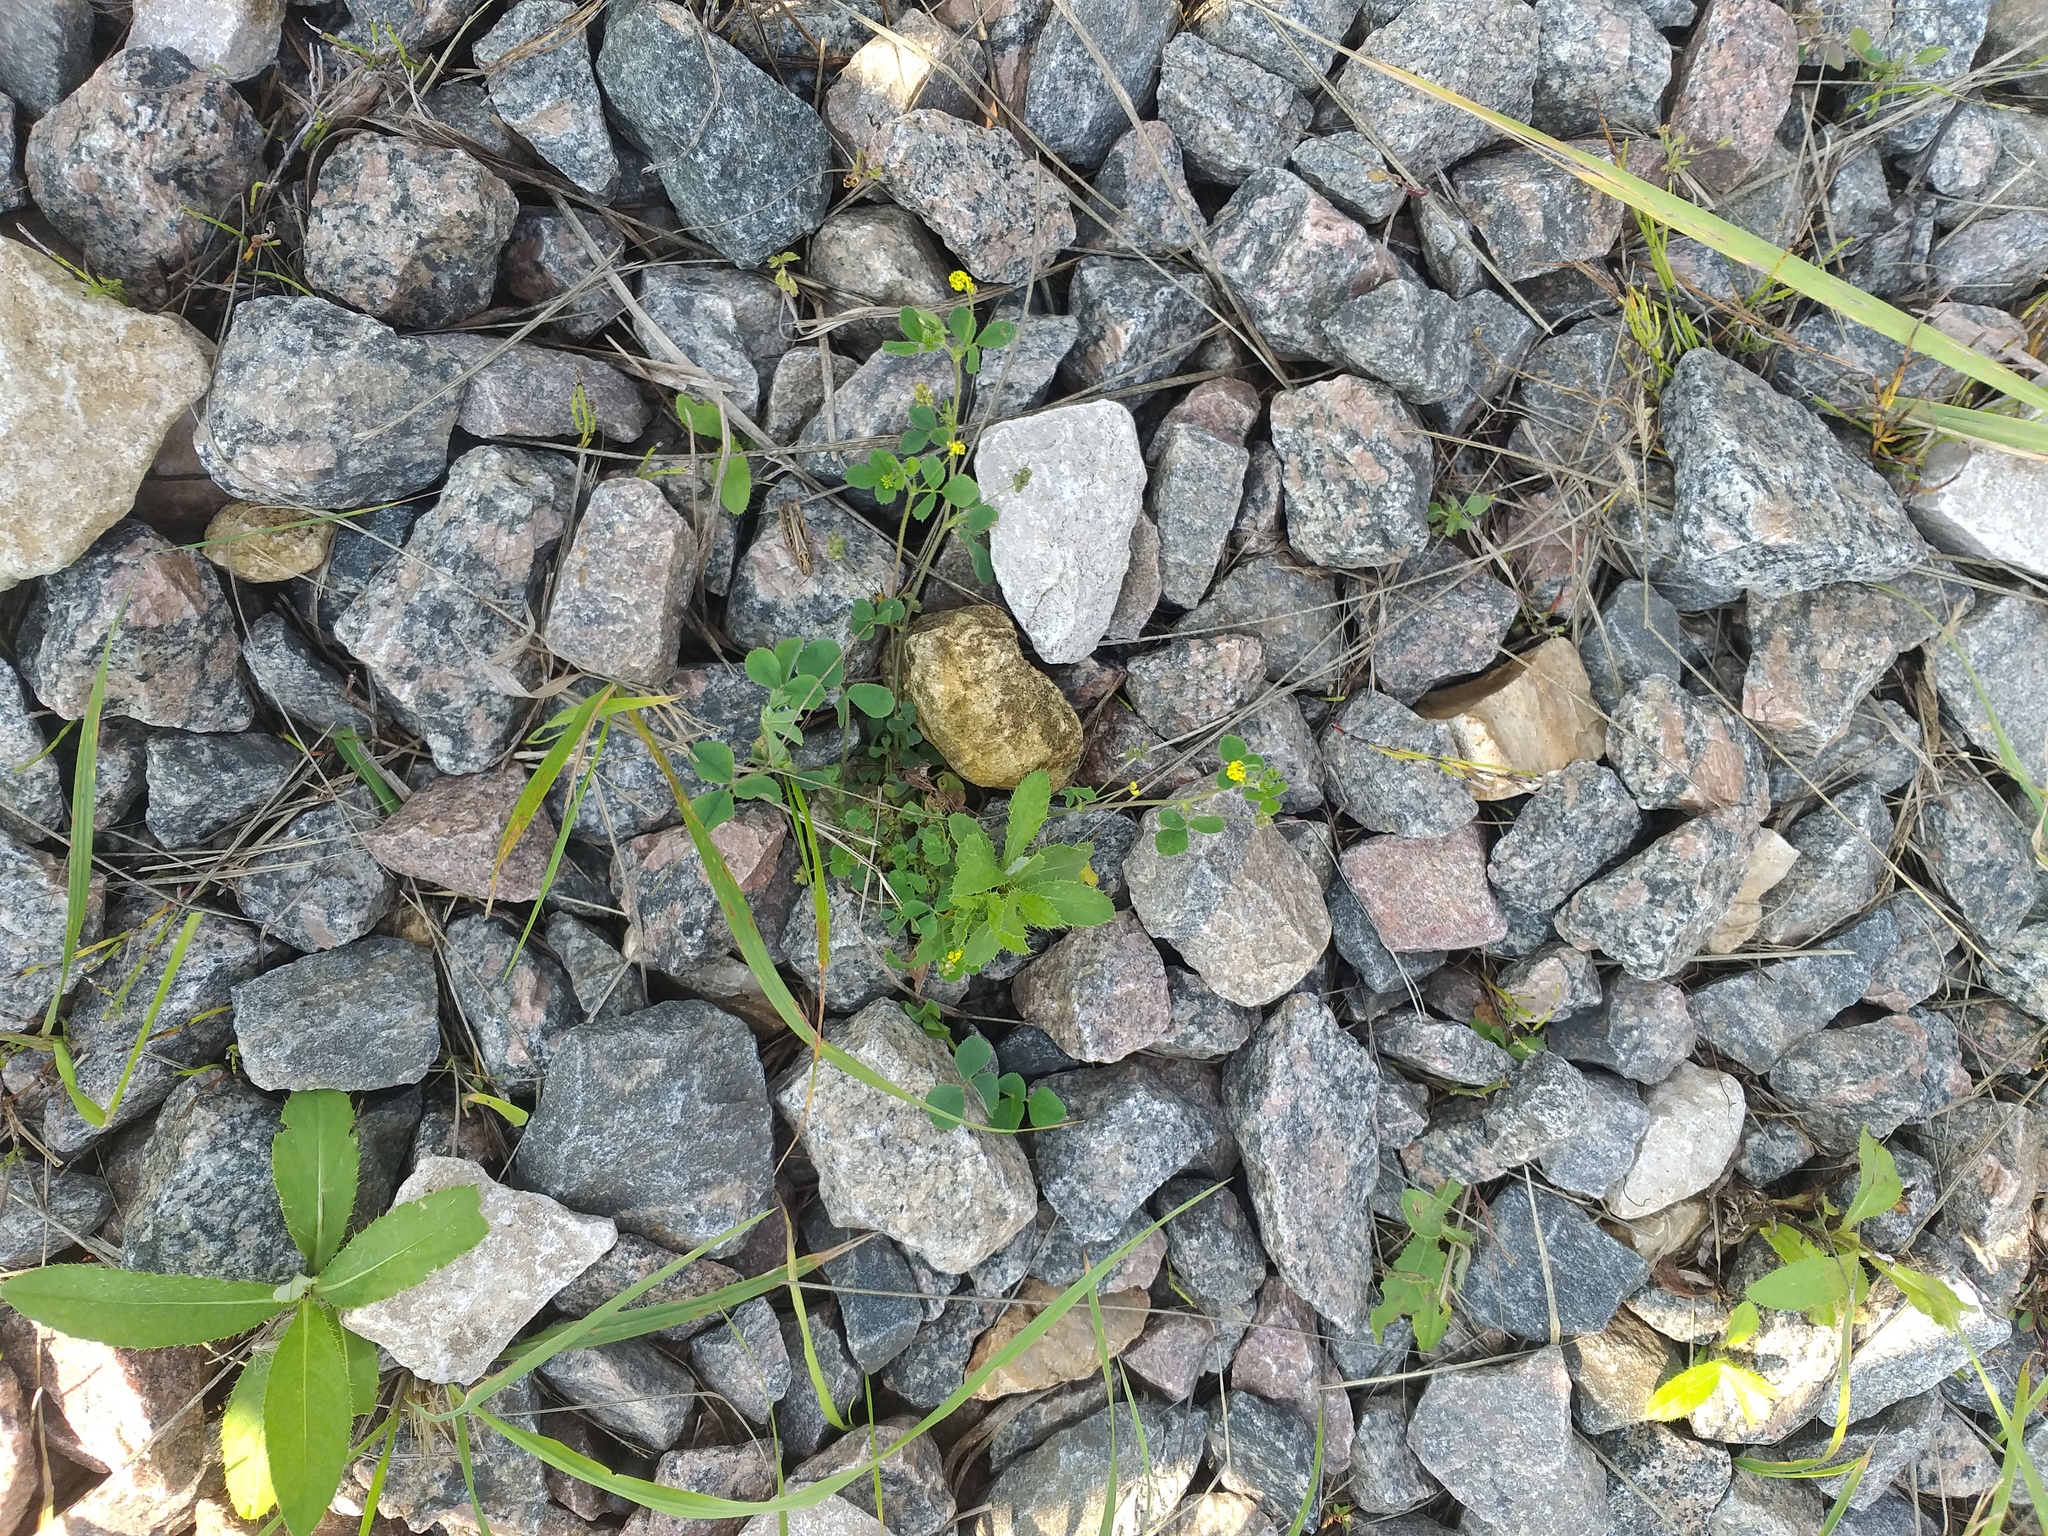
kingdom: Plantae
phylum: Tracheophyta
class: Magnoliopsida
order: Fabales
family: Fabaceae
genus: Medicago
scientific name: Medicago lupulina
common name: Black medick
